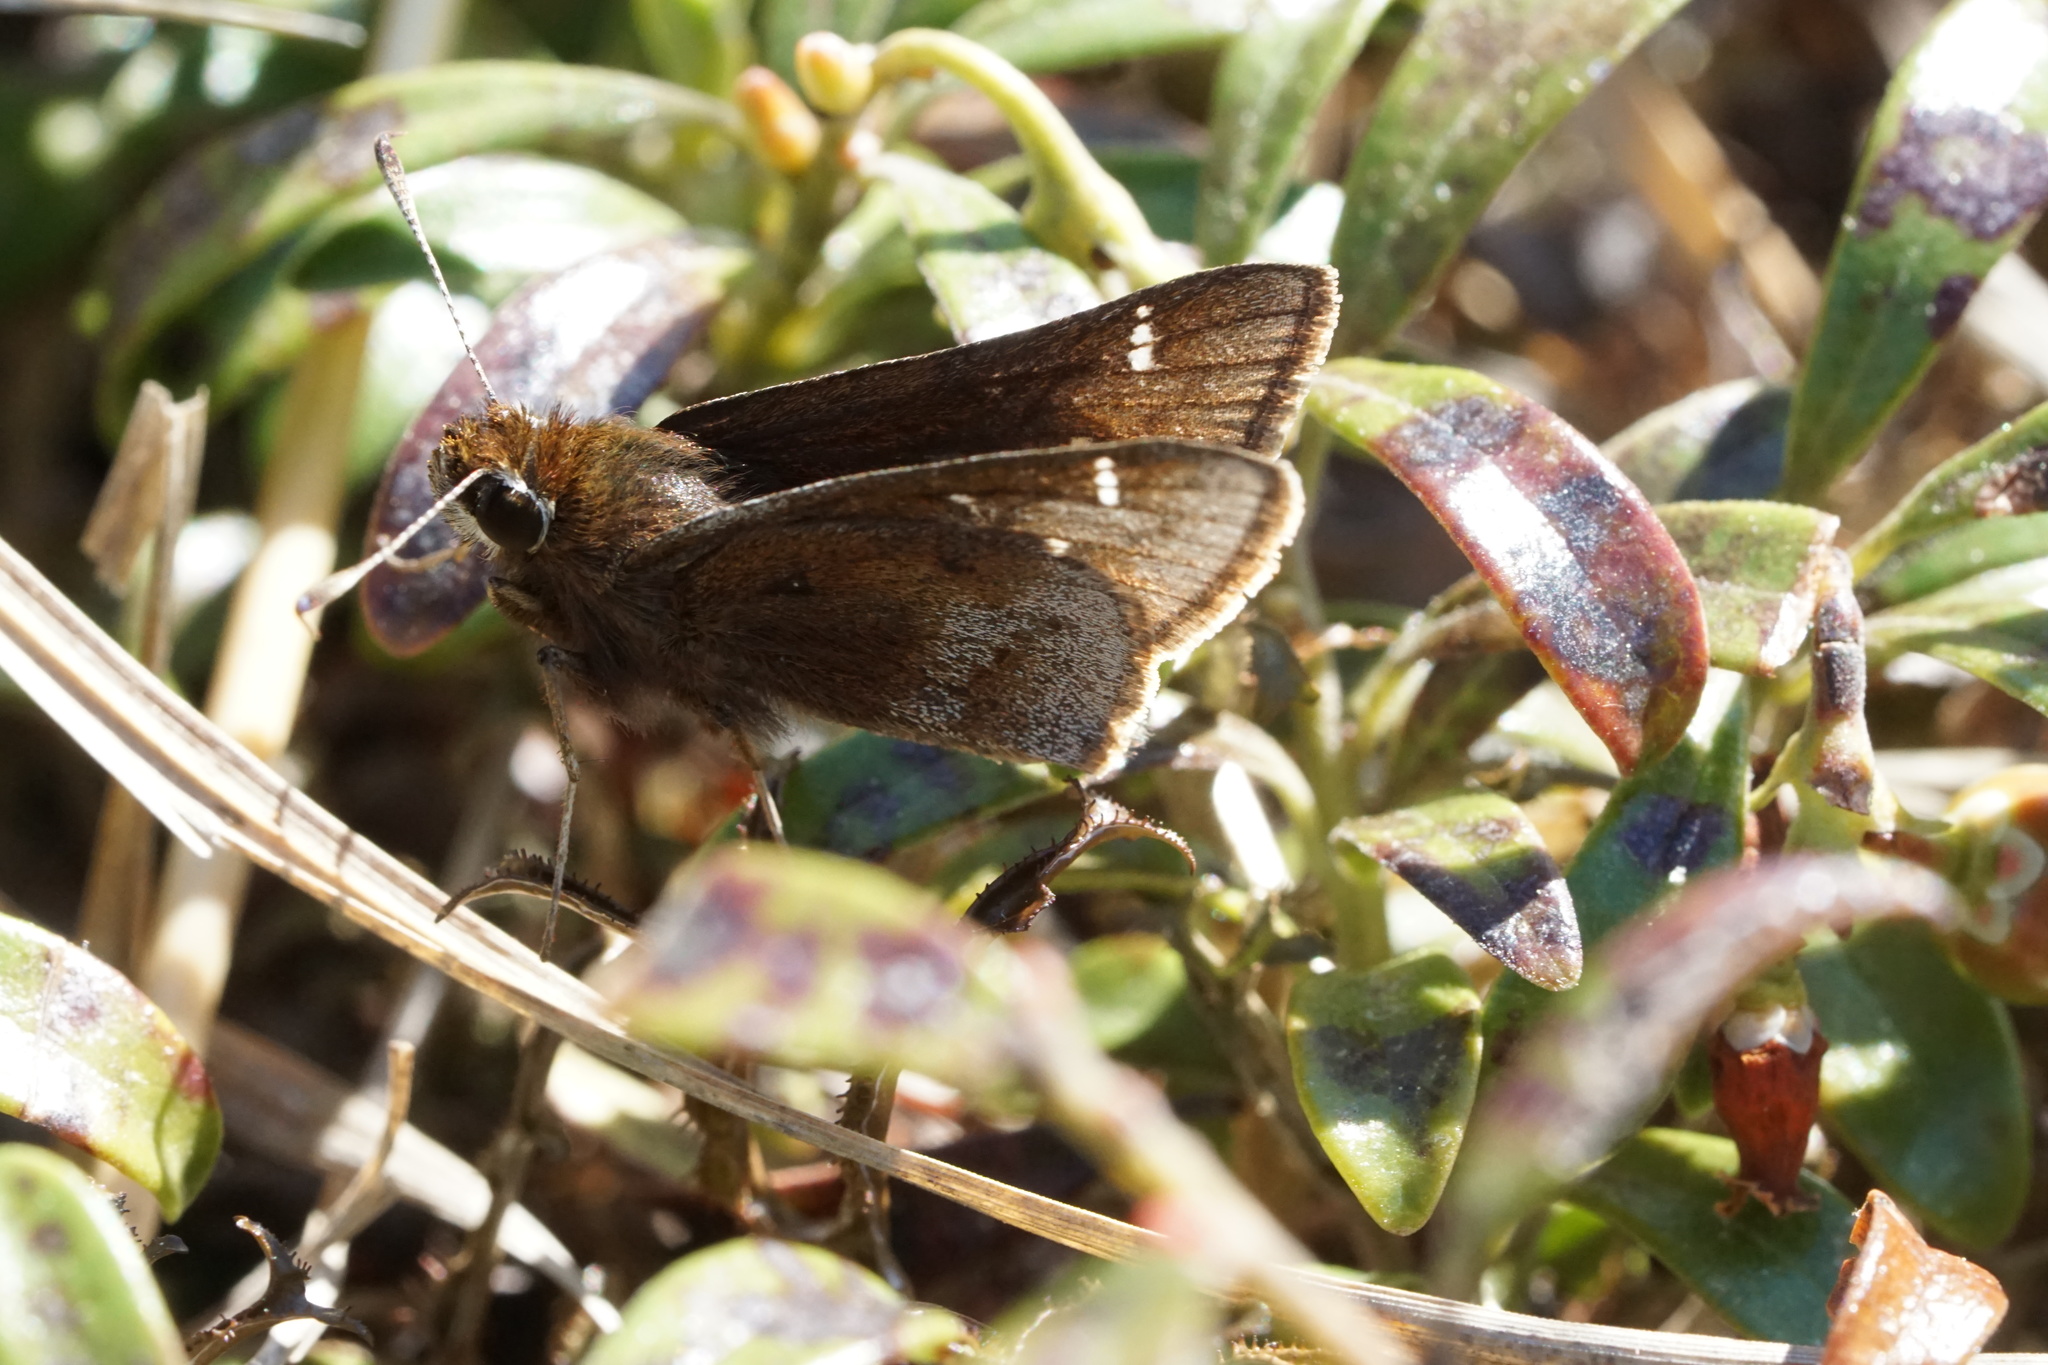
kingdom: Animalia
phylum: Arthropoda
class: Insecta
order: Lepidoptera
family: Hesperiidae
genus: Atrytonopsis
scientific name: Atrytonopsis hianna
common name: Dusted skipper
